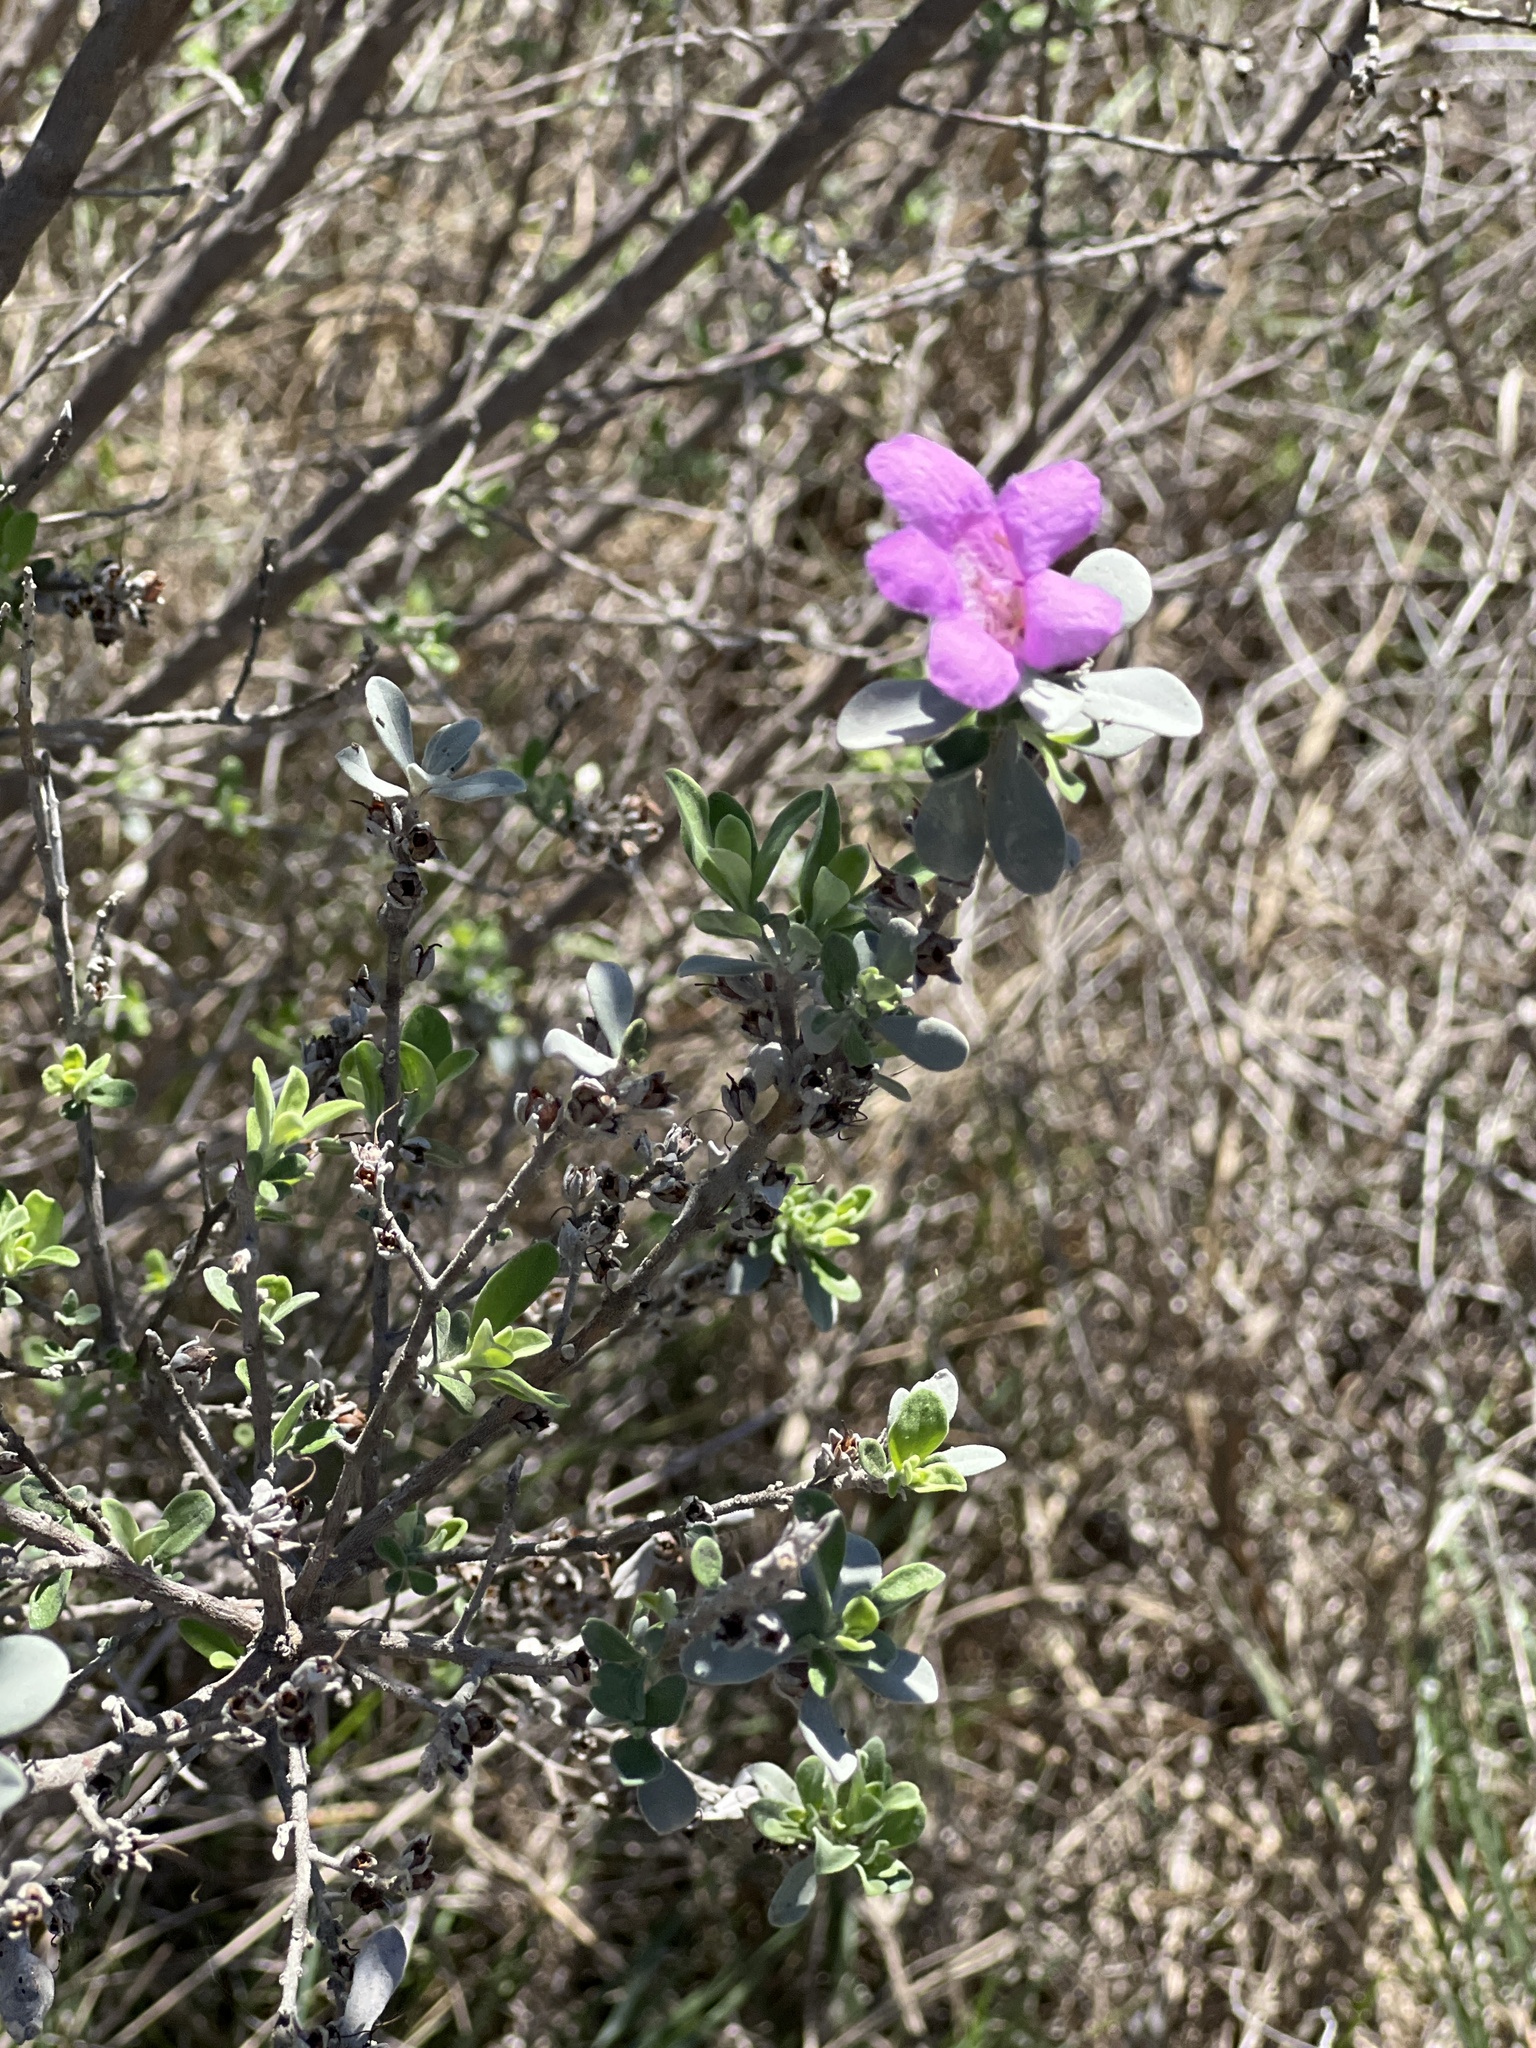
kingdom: Plantae
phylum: Tracheophyta
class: Magnoliopsida
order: Lamiales
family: Scrophulariaceae
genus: Leucophyllum
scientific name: Leucophyllum frutescens
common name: Texas silverleaf
